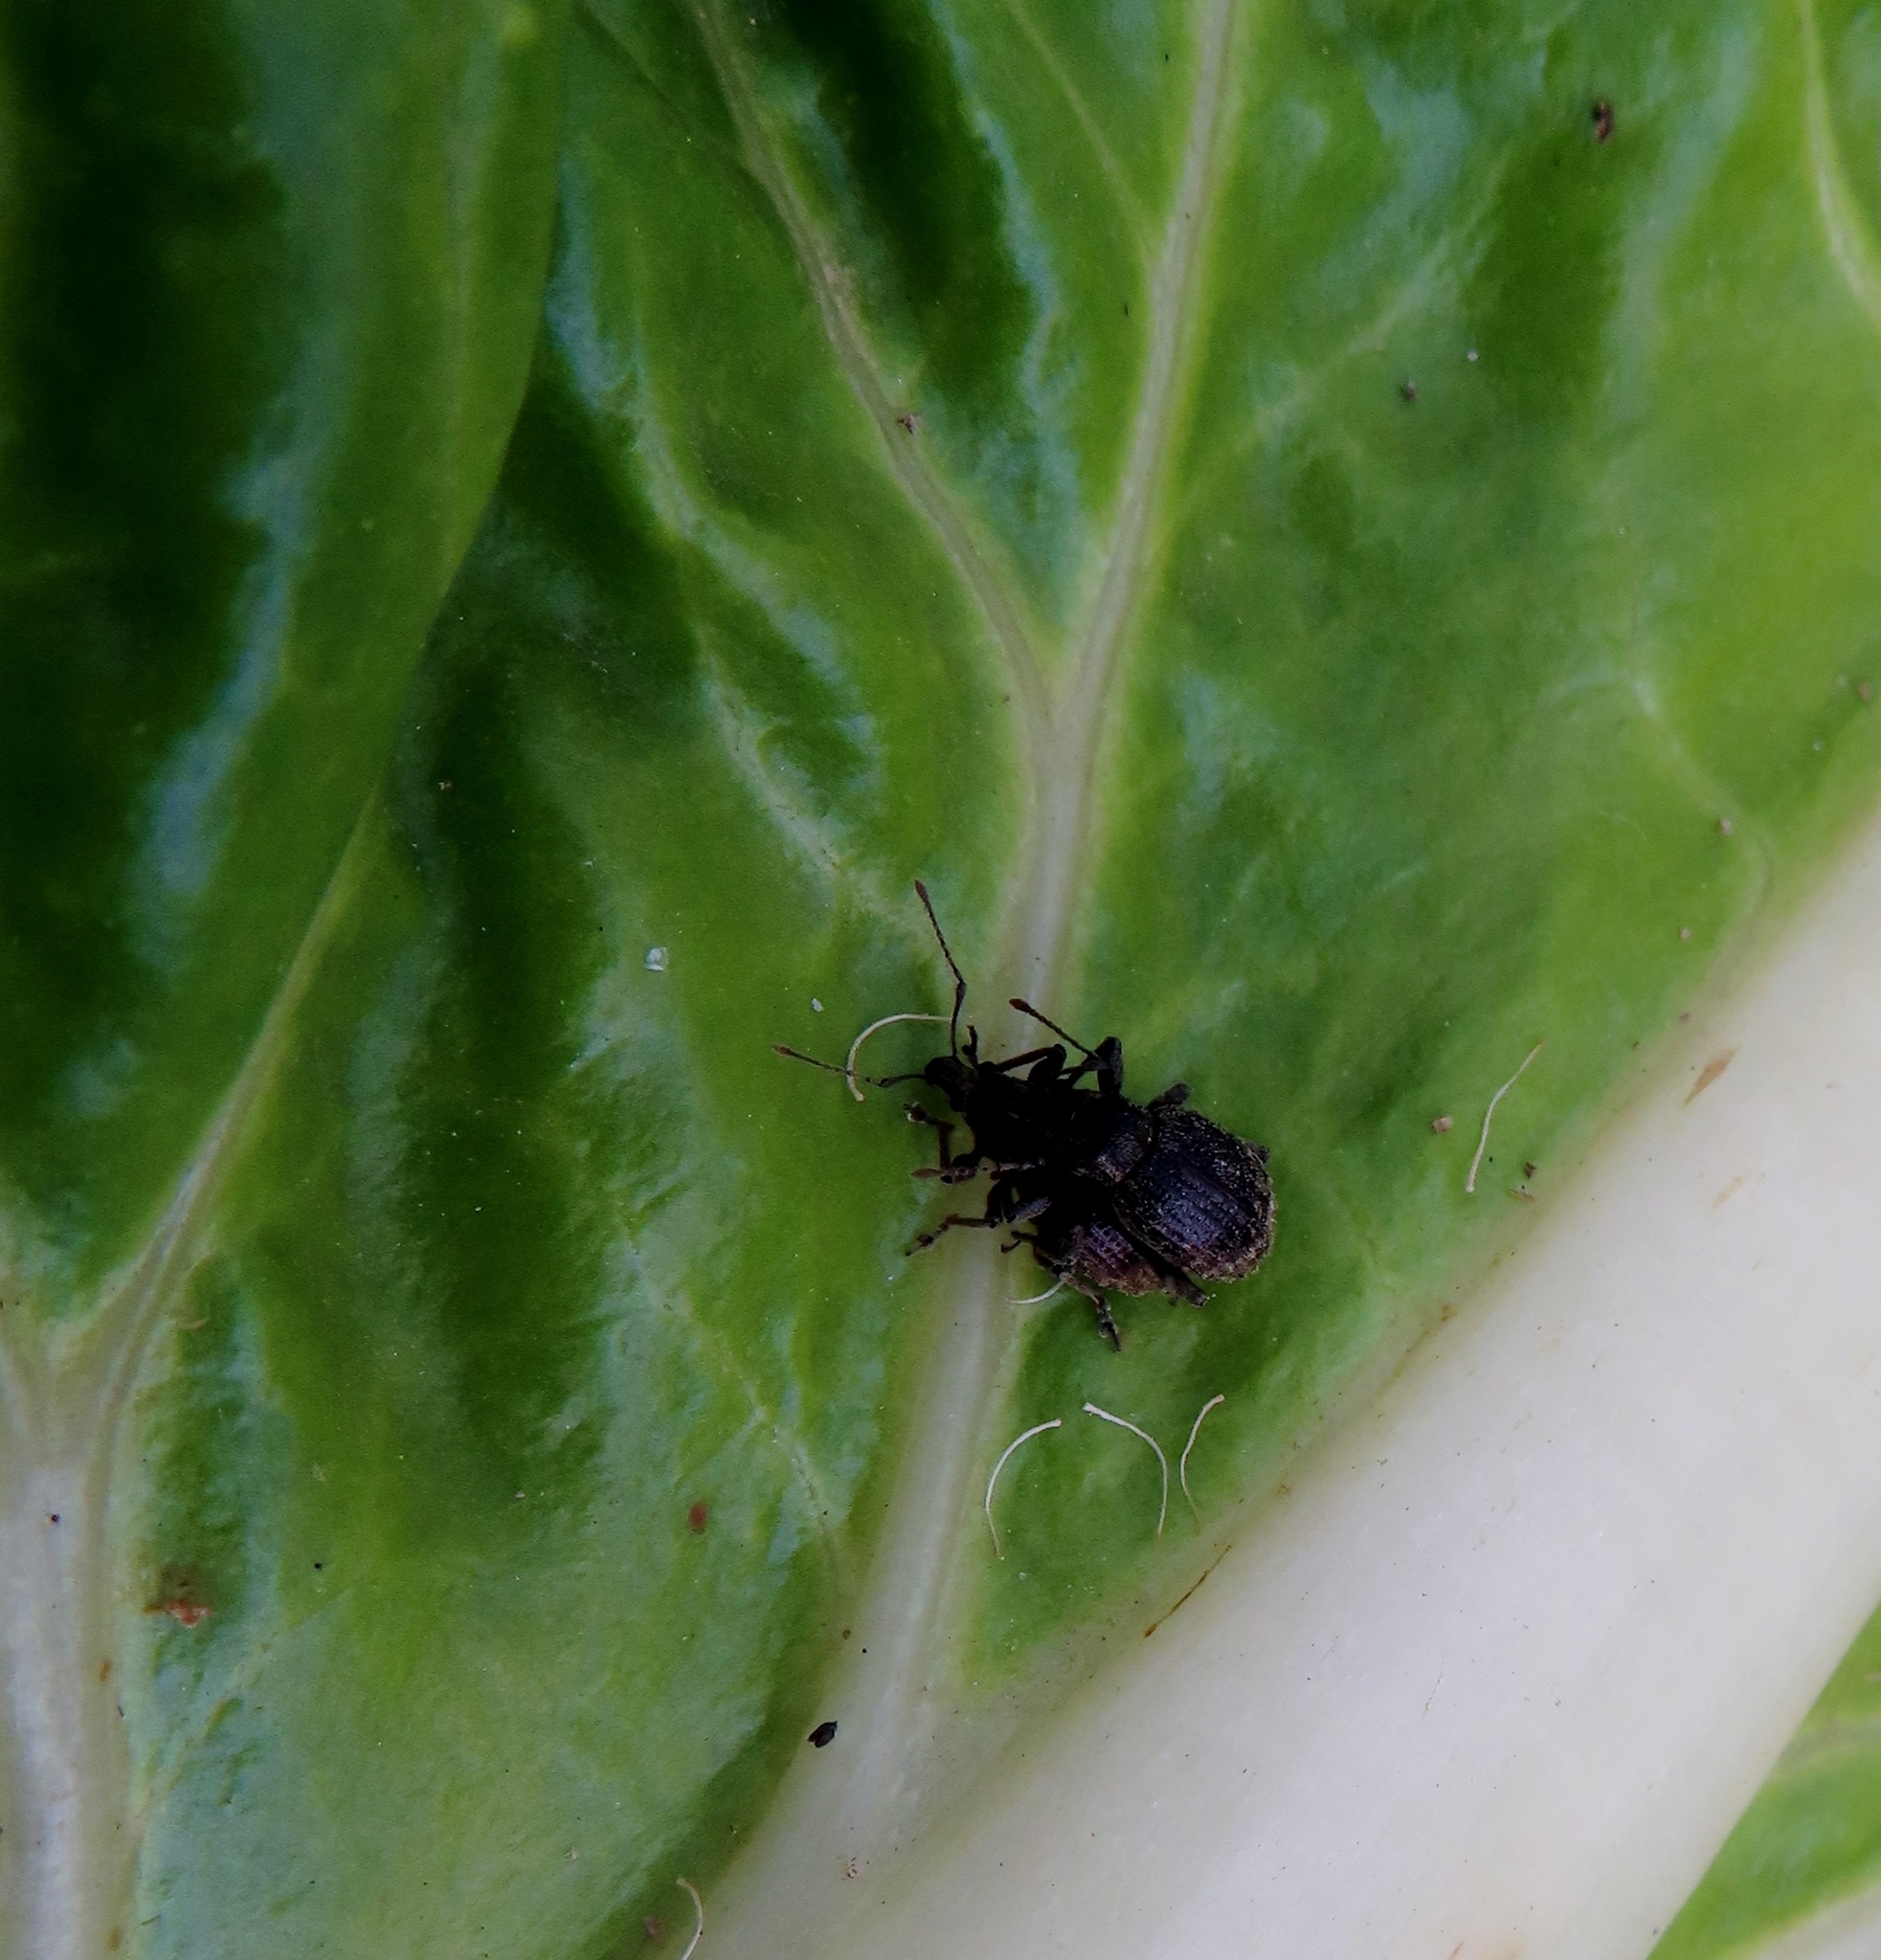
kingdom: Animalia
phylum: Arthropoda
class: Insecta
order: Coleoptera
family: Curculionidae
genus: Phlyctinus
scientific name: Phlyctinus callosus
